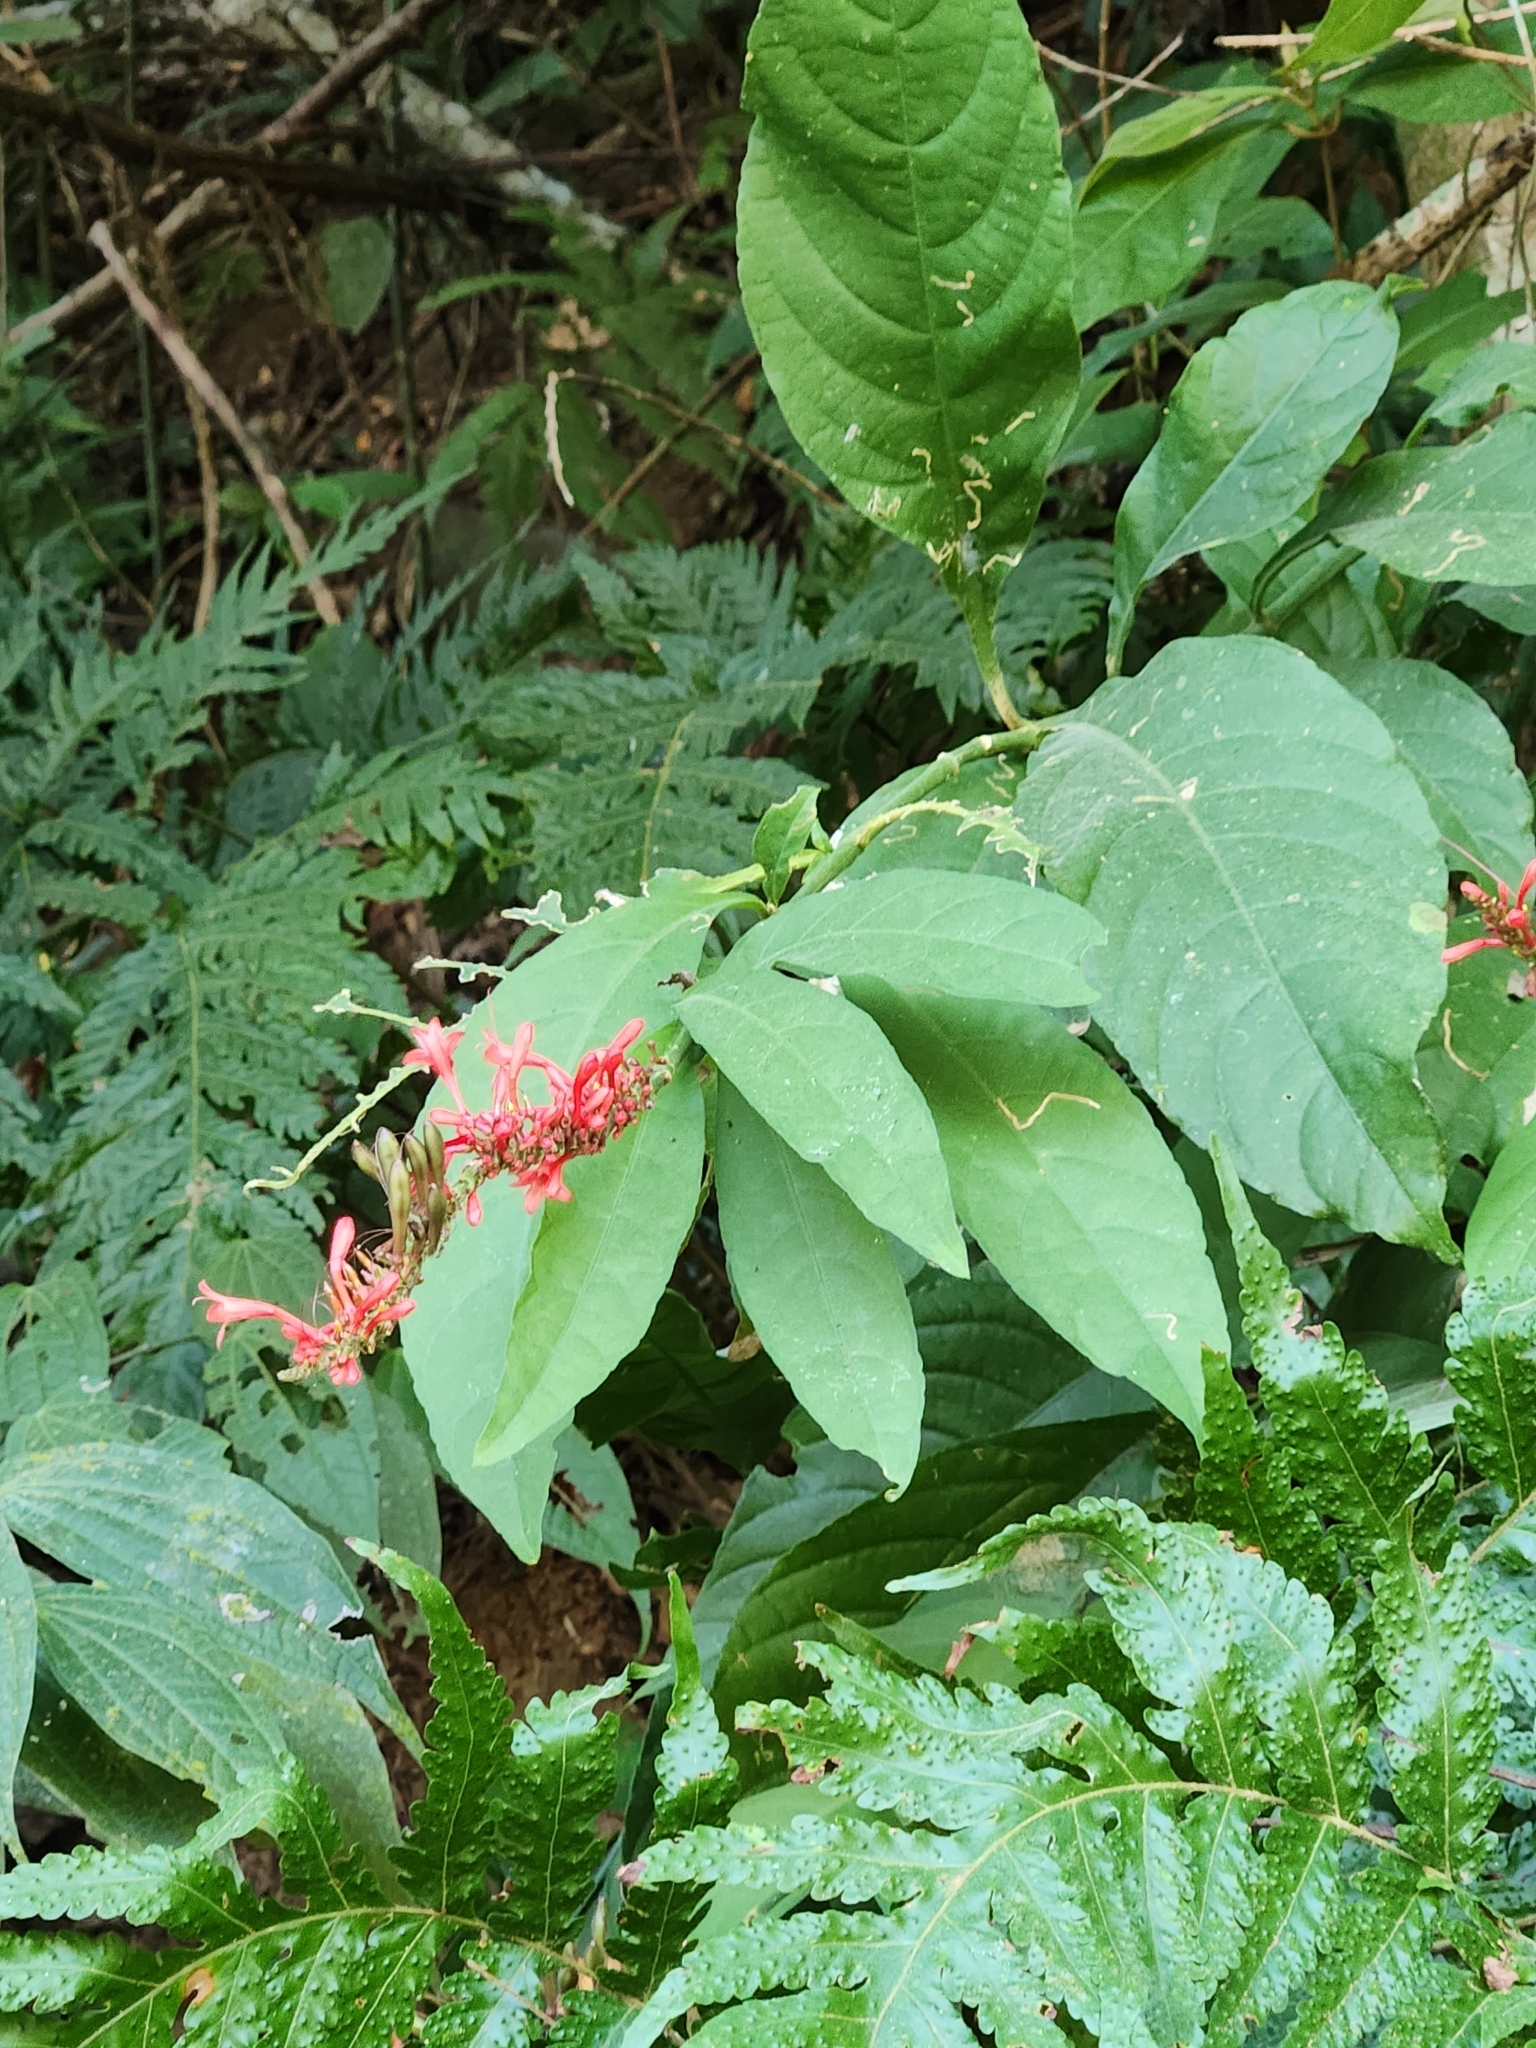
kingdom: Plantae
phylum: Tracheophyta
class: Magnoliopsida
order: Lamiales
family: Acanthaceae
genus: Odontonema
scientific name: Odontonema tubaeforme
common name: Firespike
